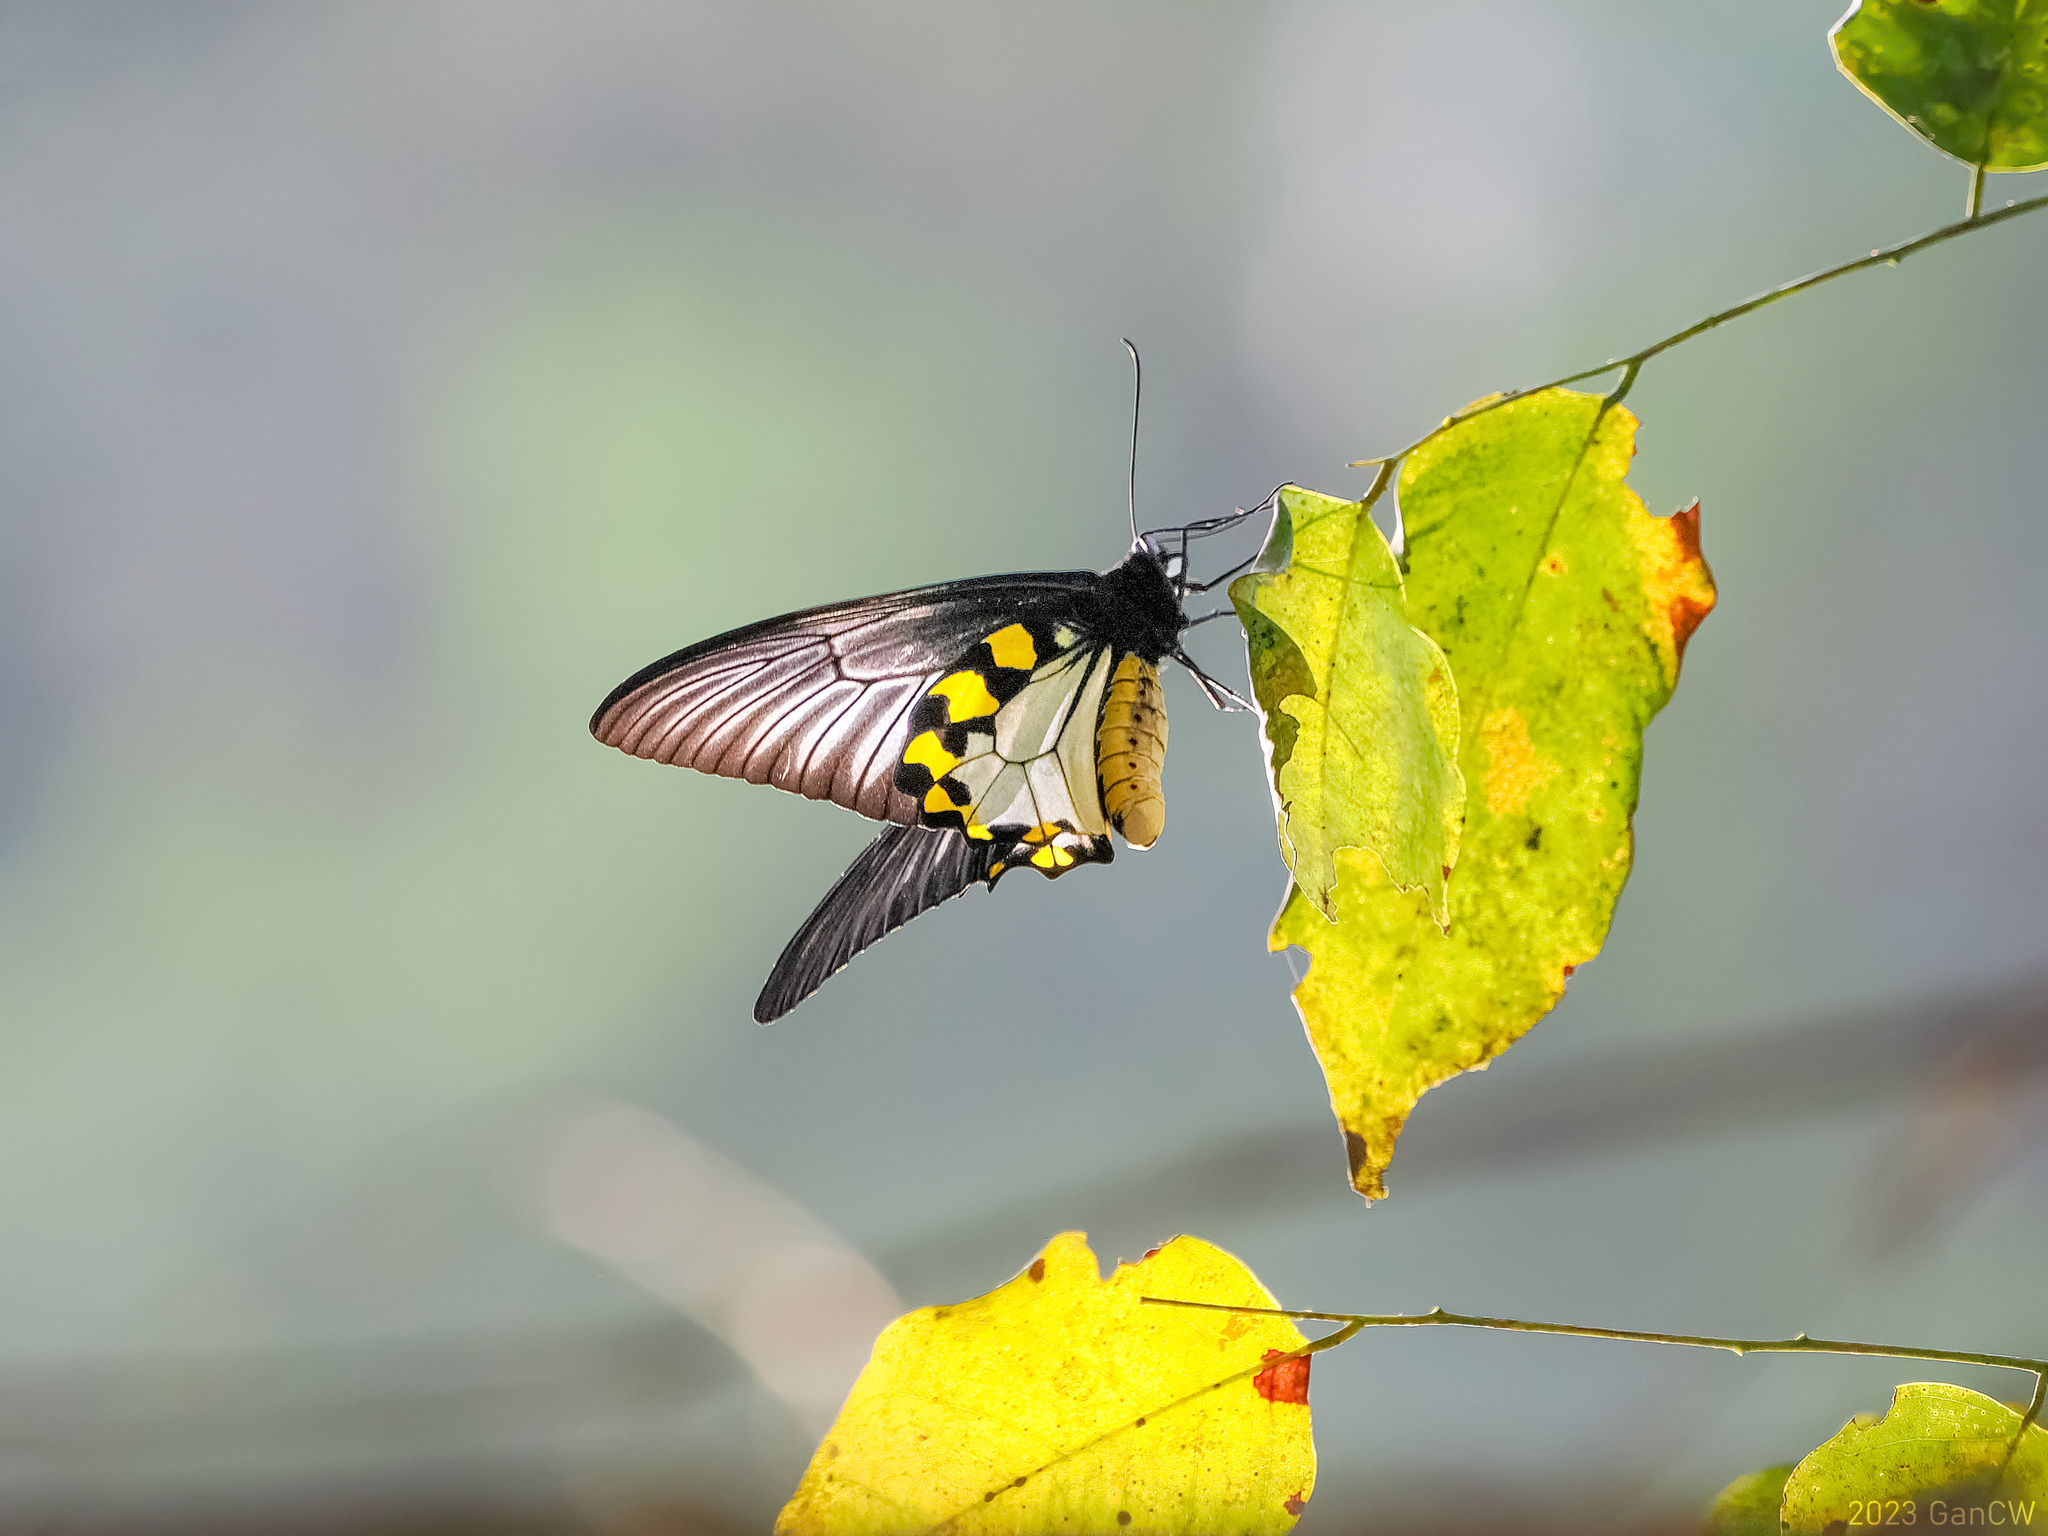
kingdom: Animalia
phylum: Arthropoda
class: Insecta
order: Lepidoptera
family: Papilionidae
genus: Troides
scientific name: Troides hypolitus
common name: Rippon’s birdwing
